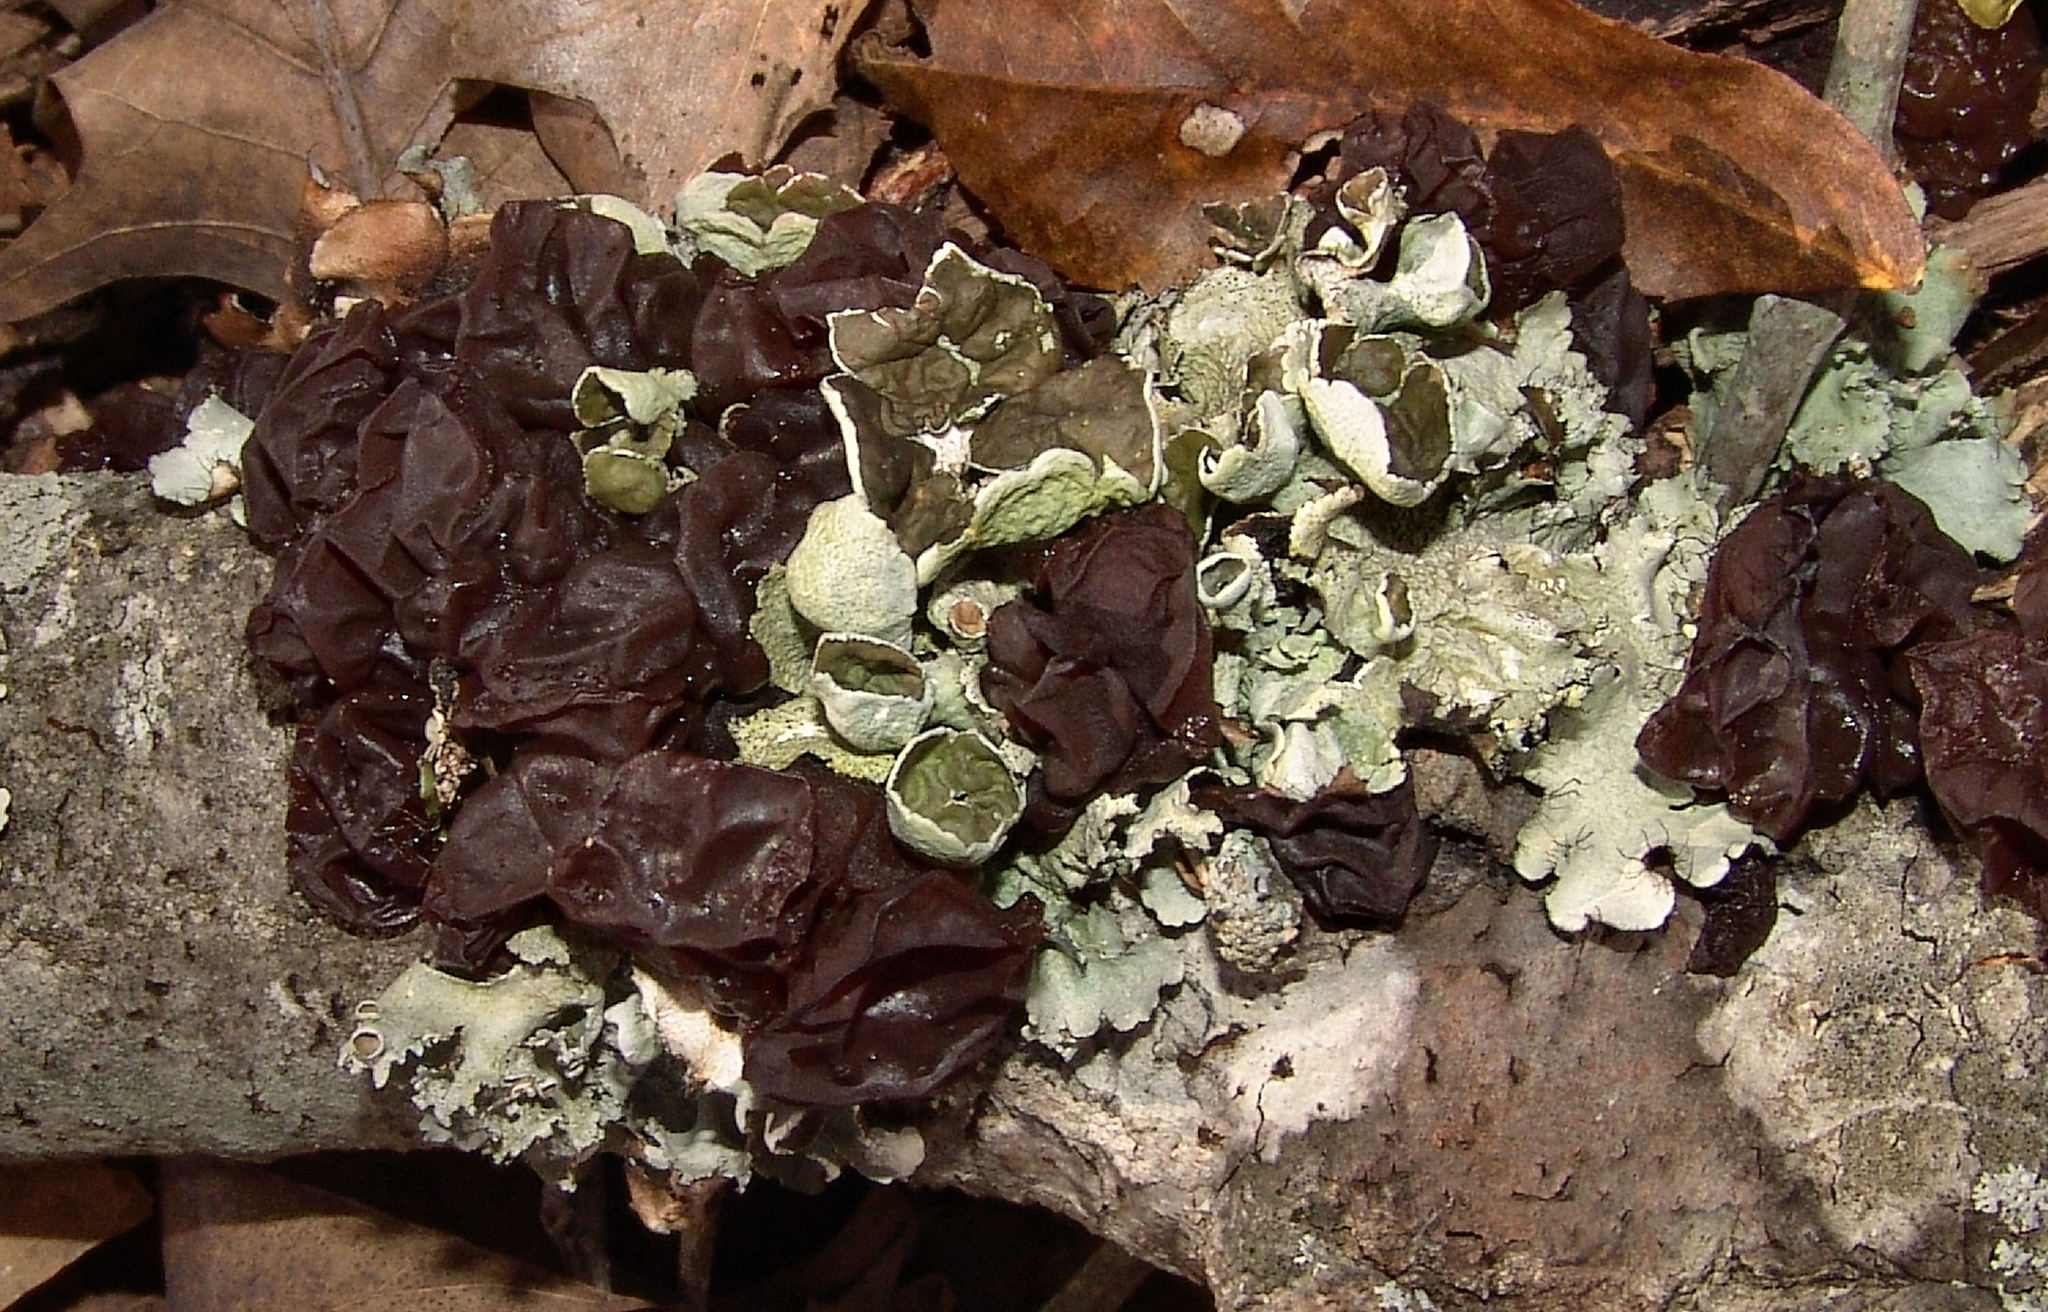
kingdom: Fungi
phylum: Basidiomycota
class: Agaricomycetes
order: Auriculariales
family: Auriculariaceae
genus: Exidia
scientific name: Exidia
